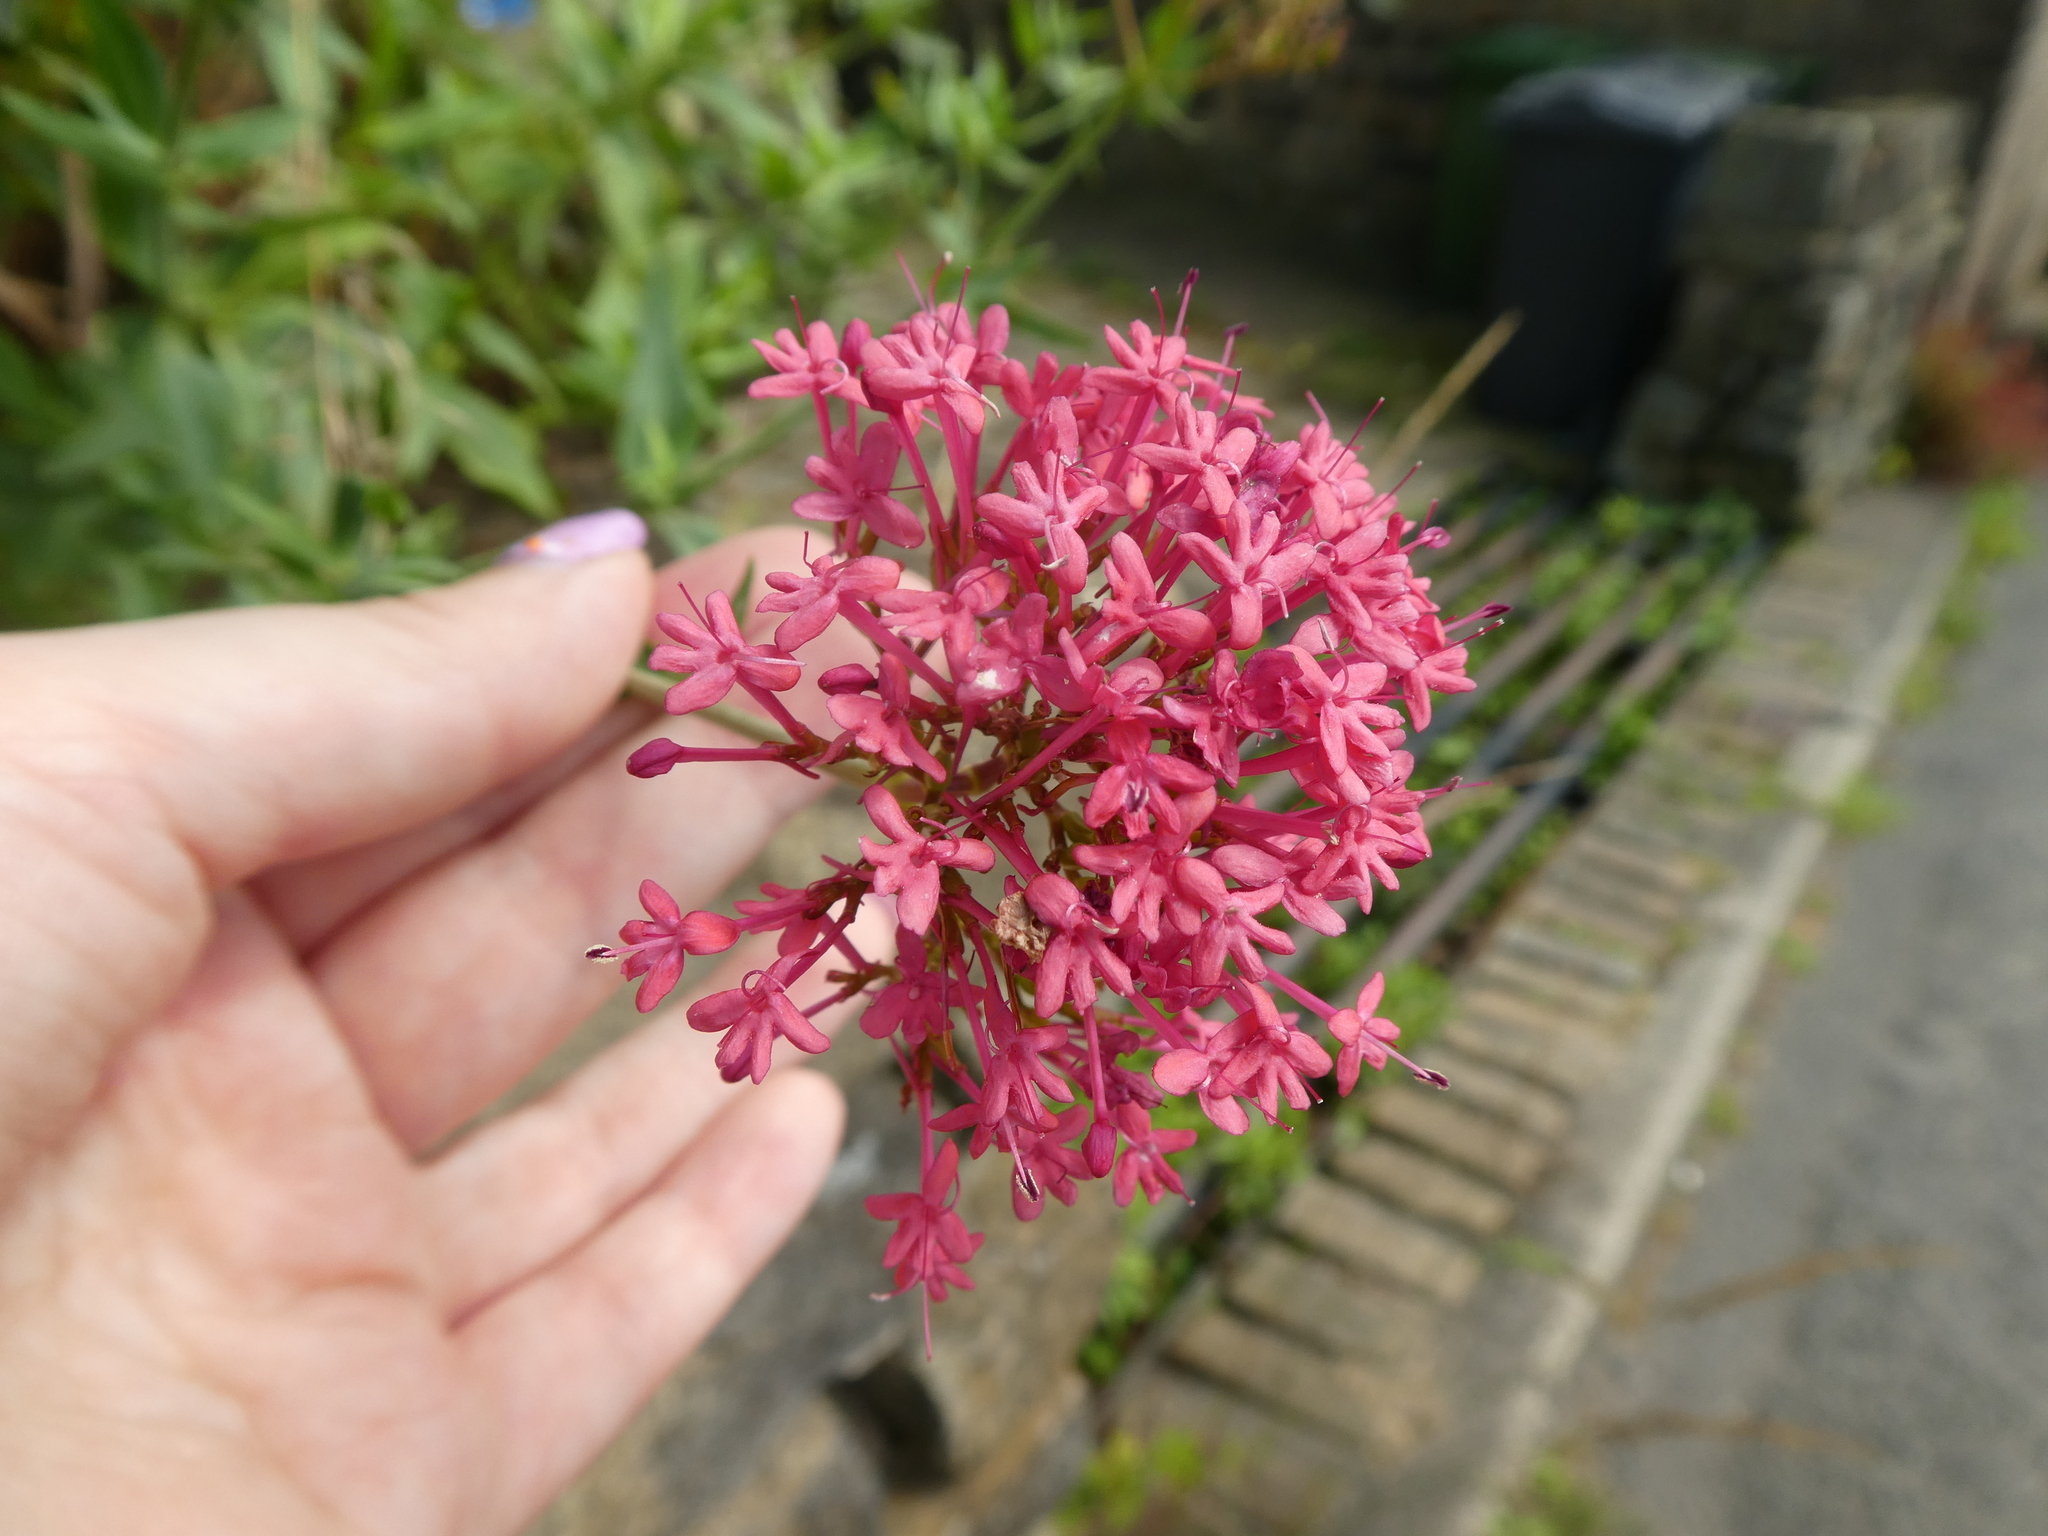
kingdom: Plantae
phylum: Tracheophyta
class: Magnoliopsida
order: Dipsacales
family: Caprifoliaceae
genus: Centranthus
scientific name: Centranthus ruber
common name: Red valerian
